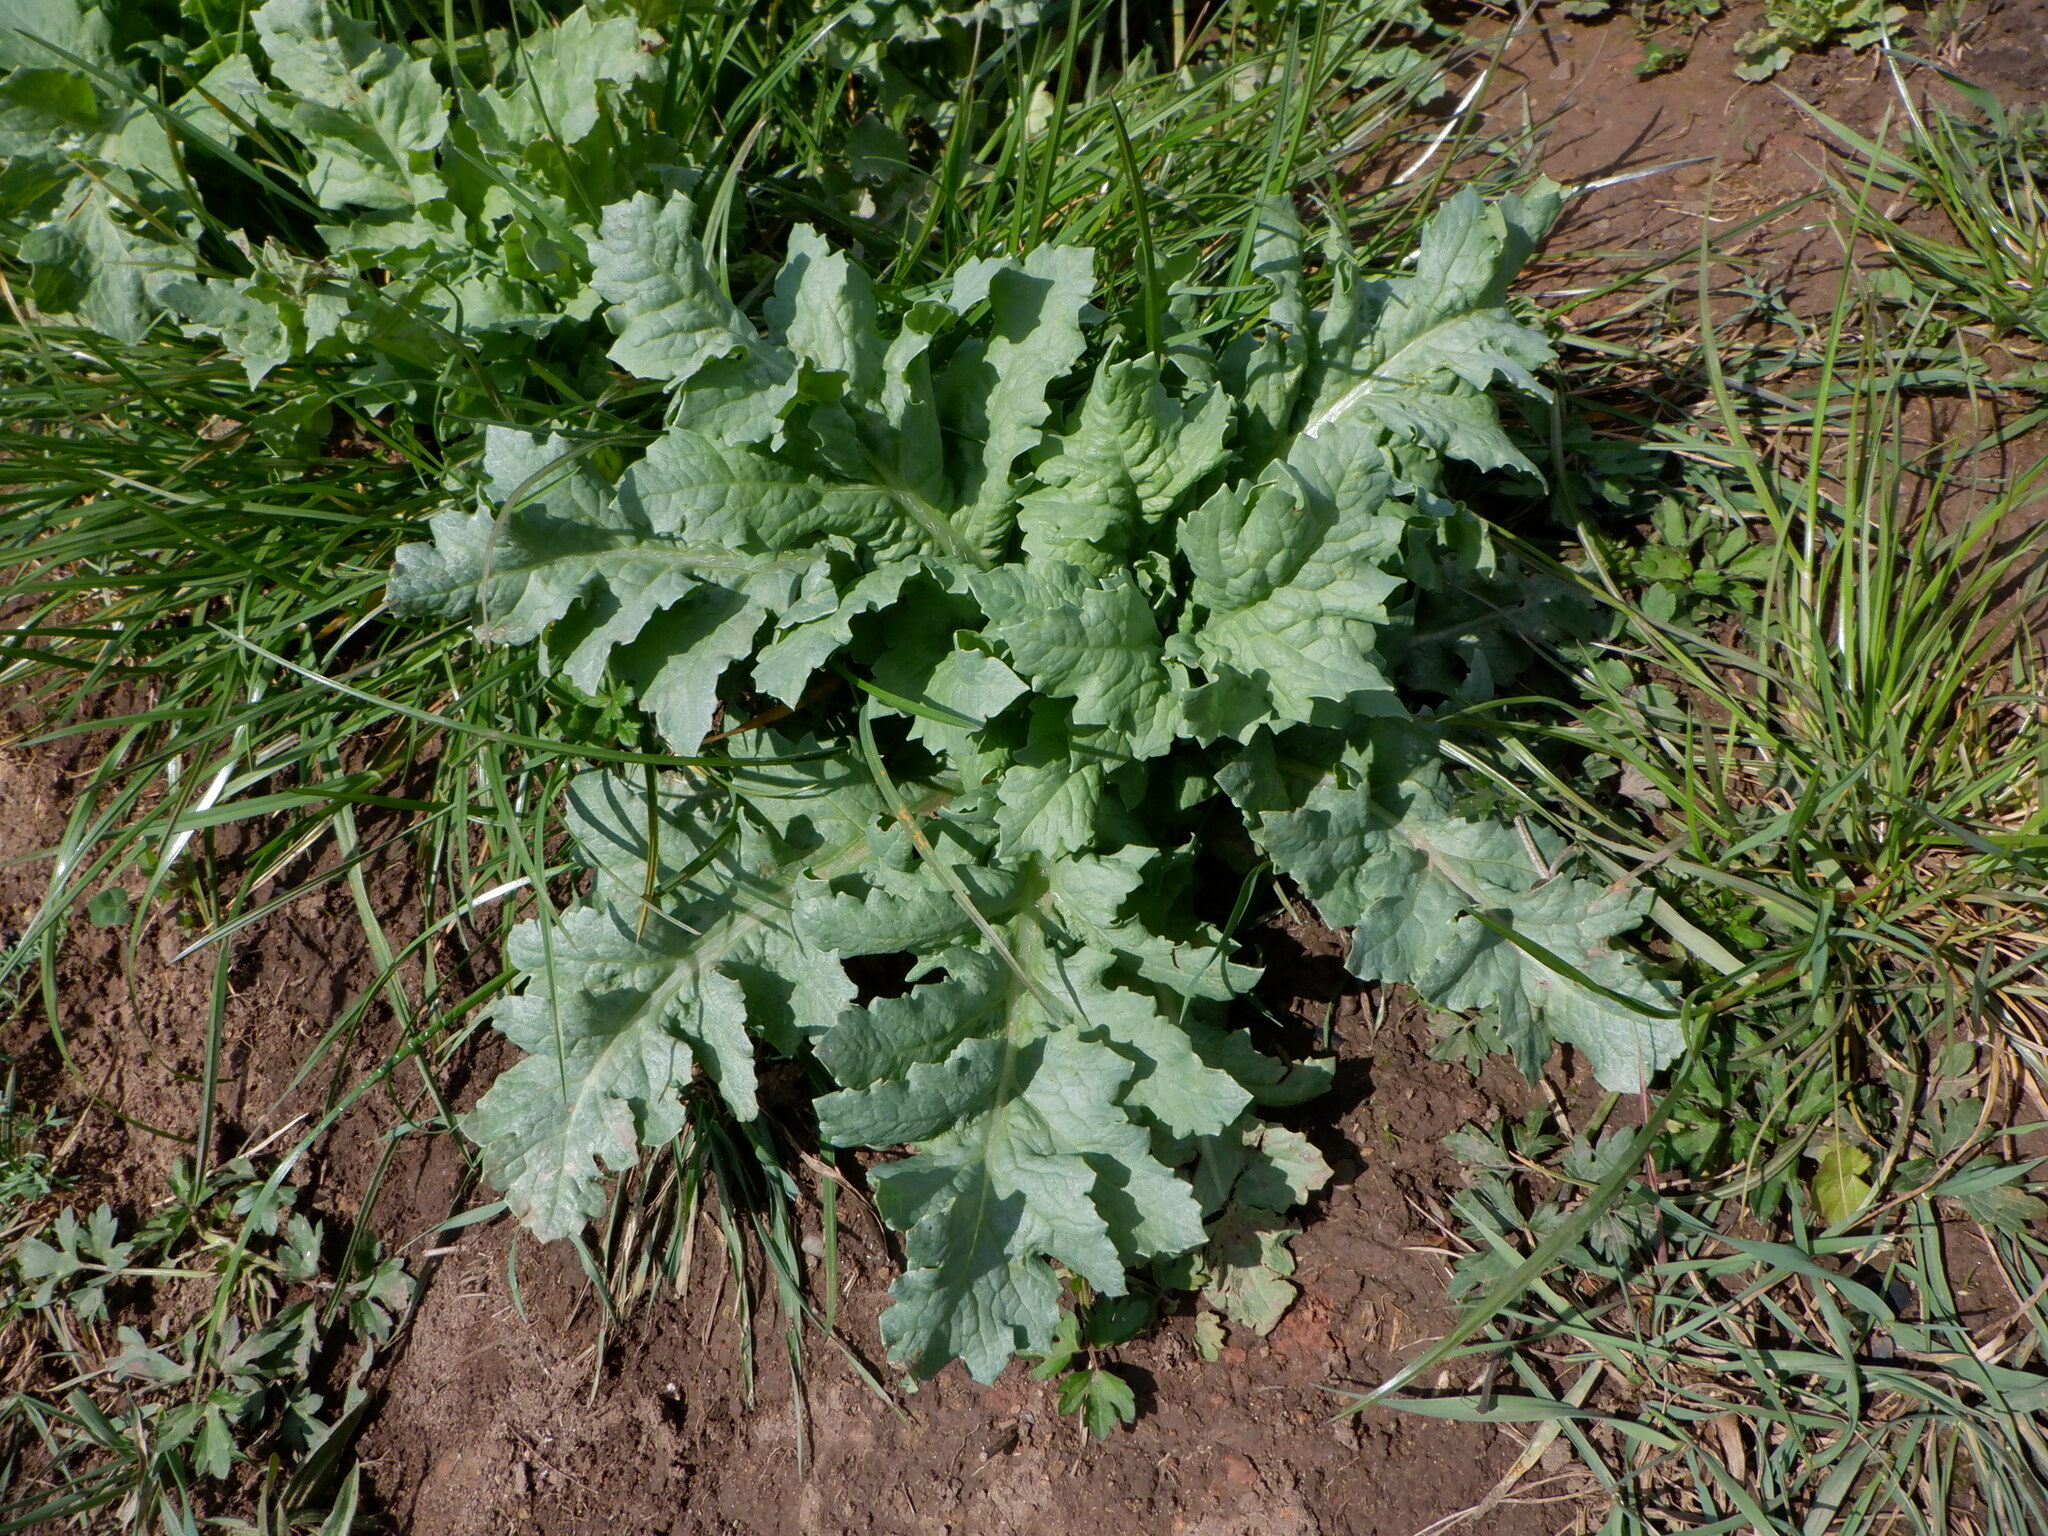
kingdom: Plantae
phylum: Tracheophyta
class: Magnoliopsida
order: Ranunculales
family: Papaveraceae
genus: Papaver
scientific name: Papaver somniferum
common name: Opium poppy
